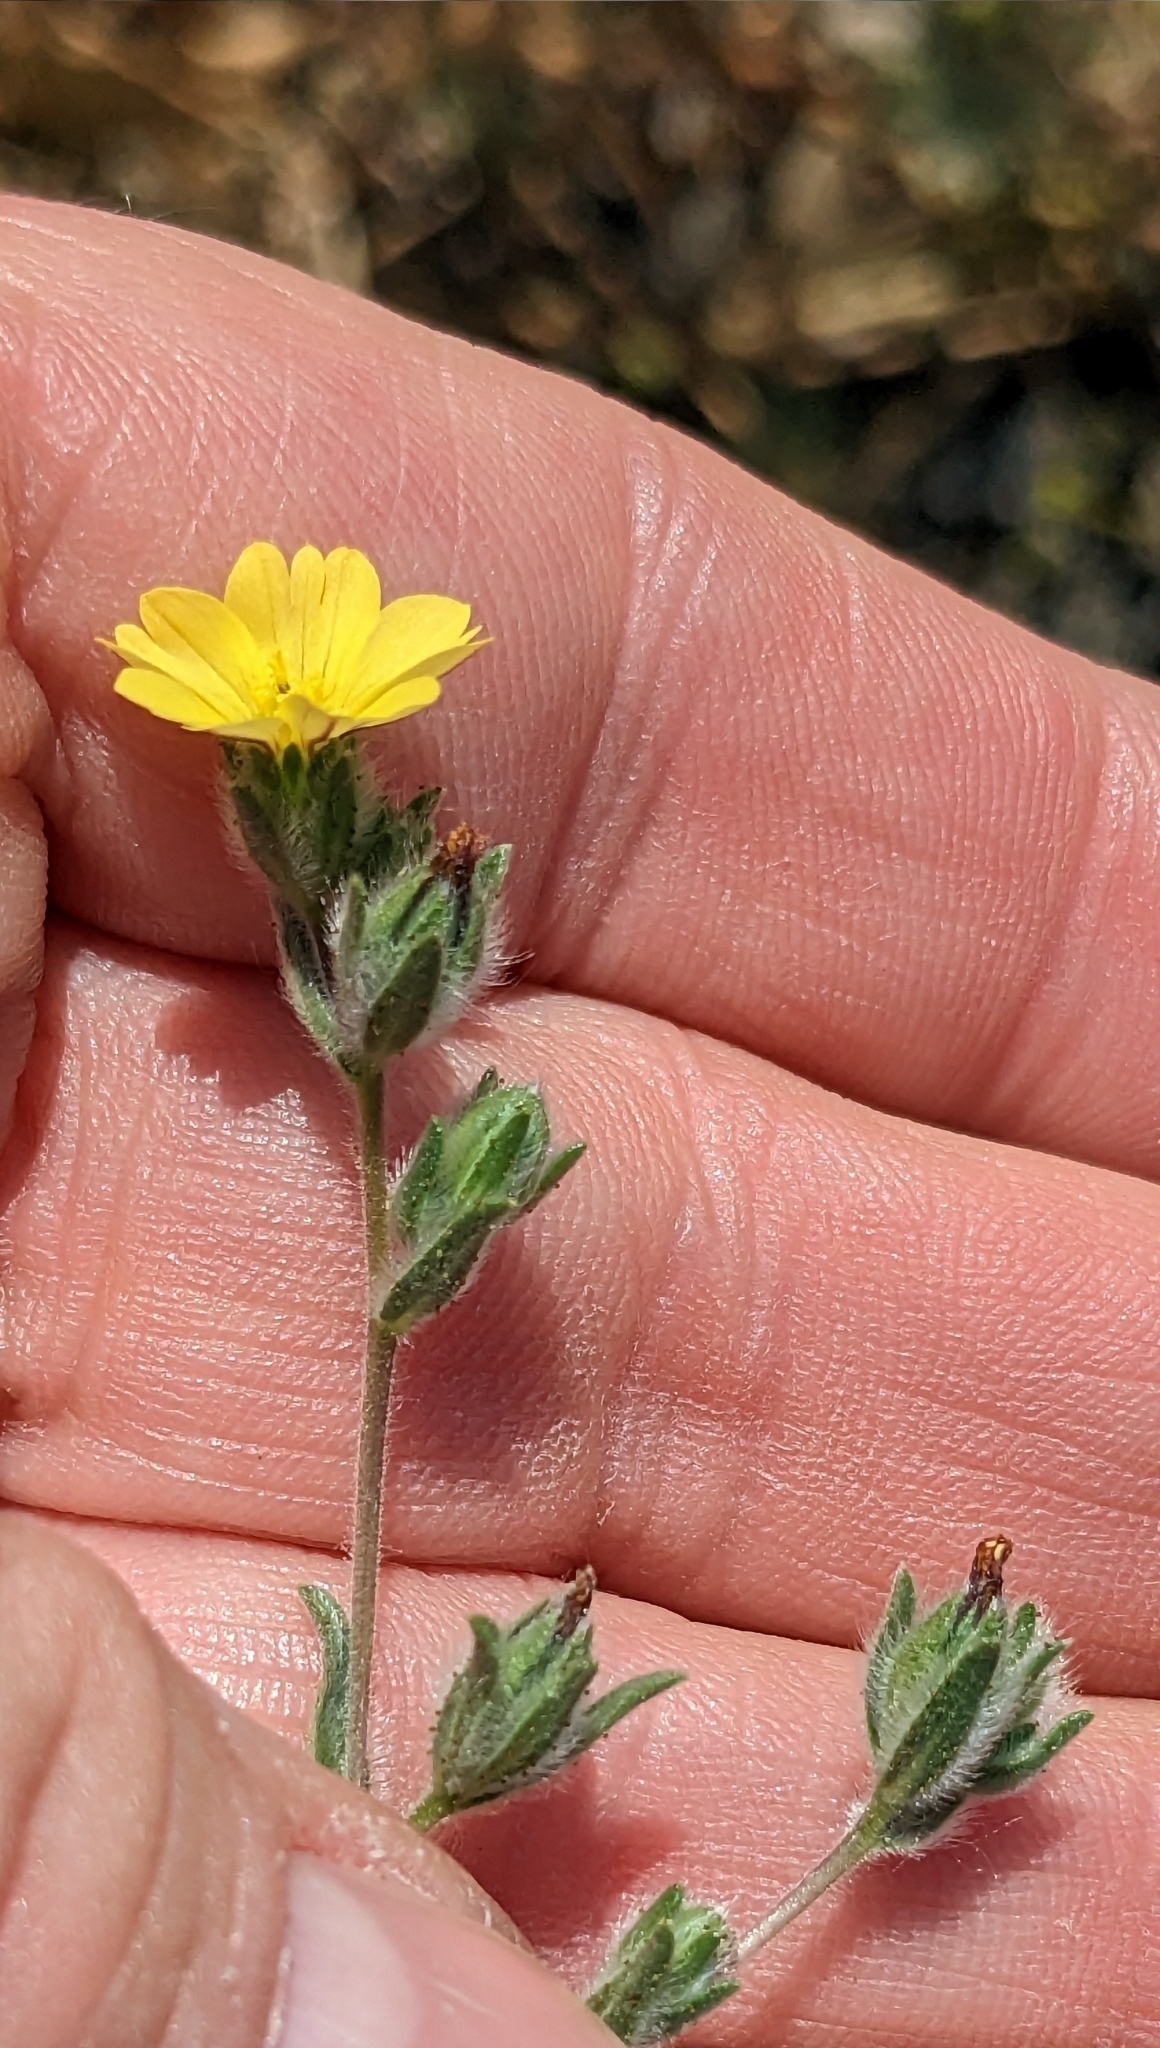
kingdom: Plantae
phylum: Tracheophyta
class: Magnoliopsida
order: Asterales
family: Asteraceae
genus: Lagophylla
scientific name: Lagophylla ramosissima
